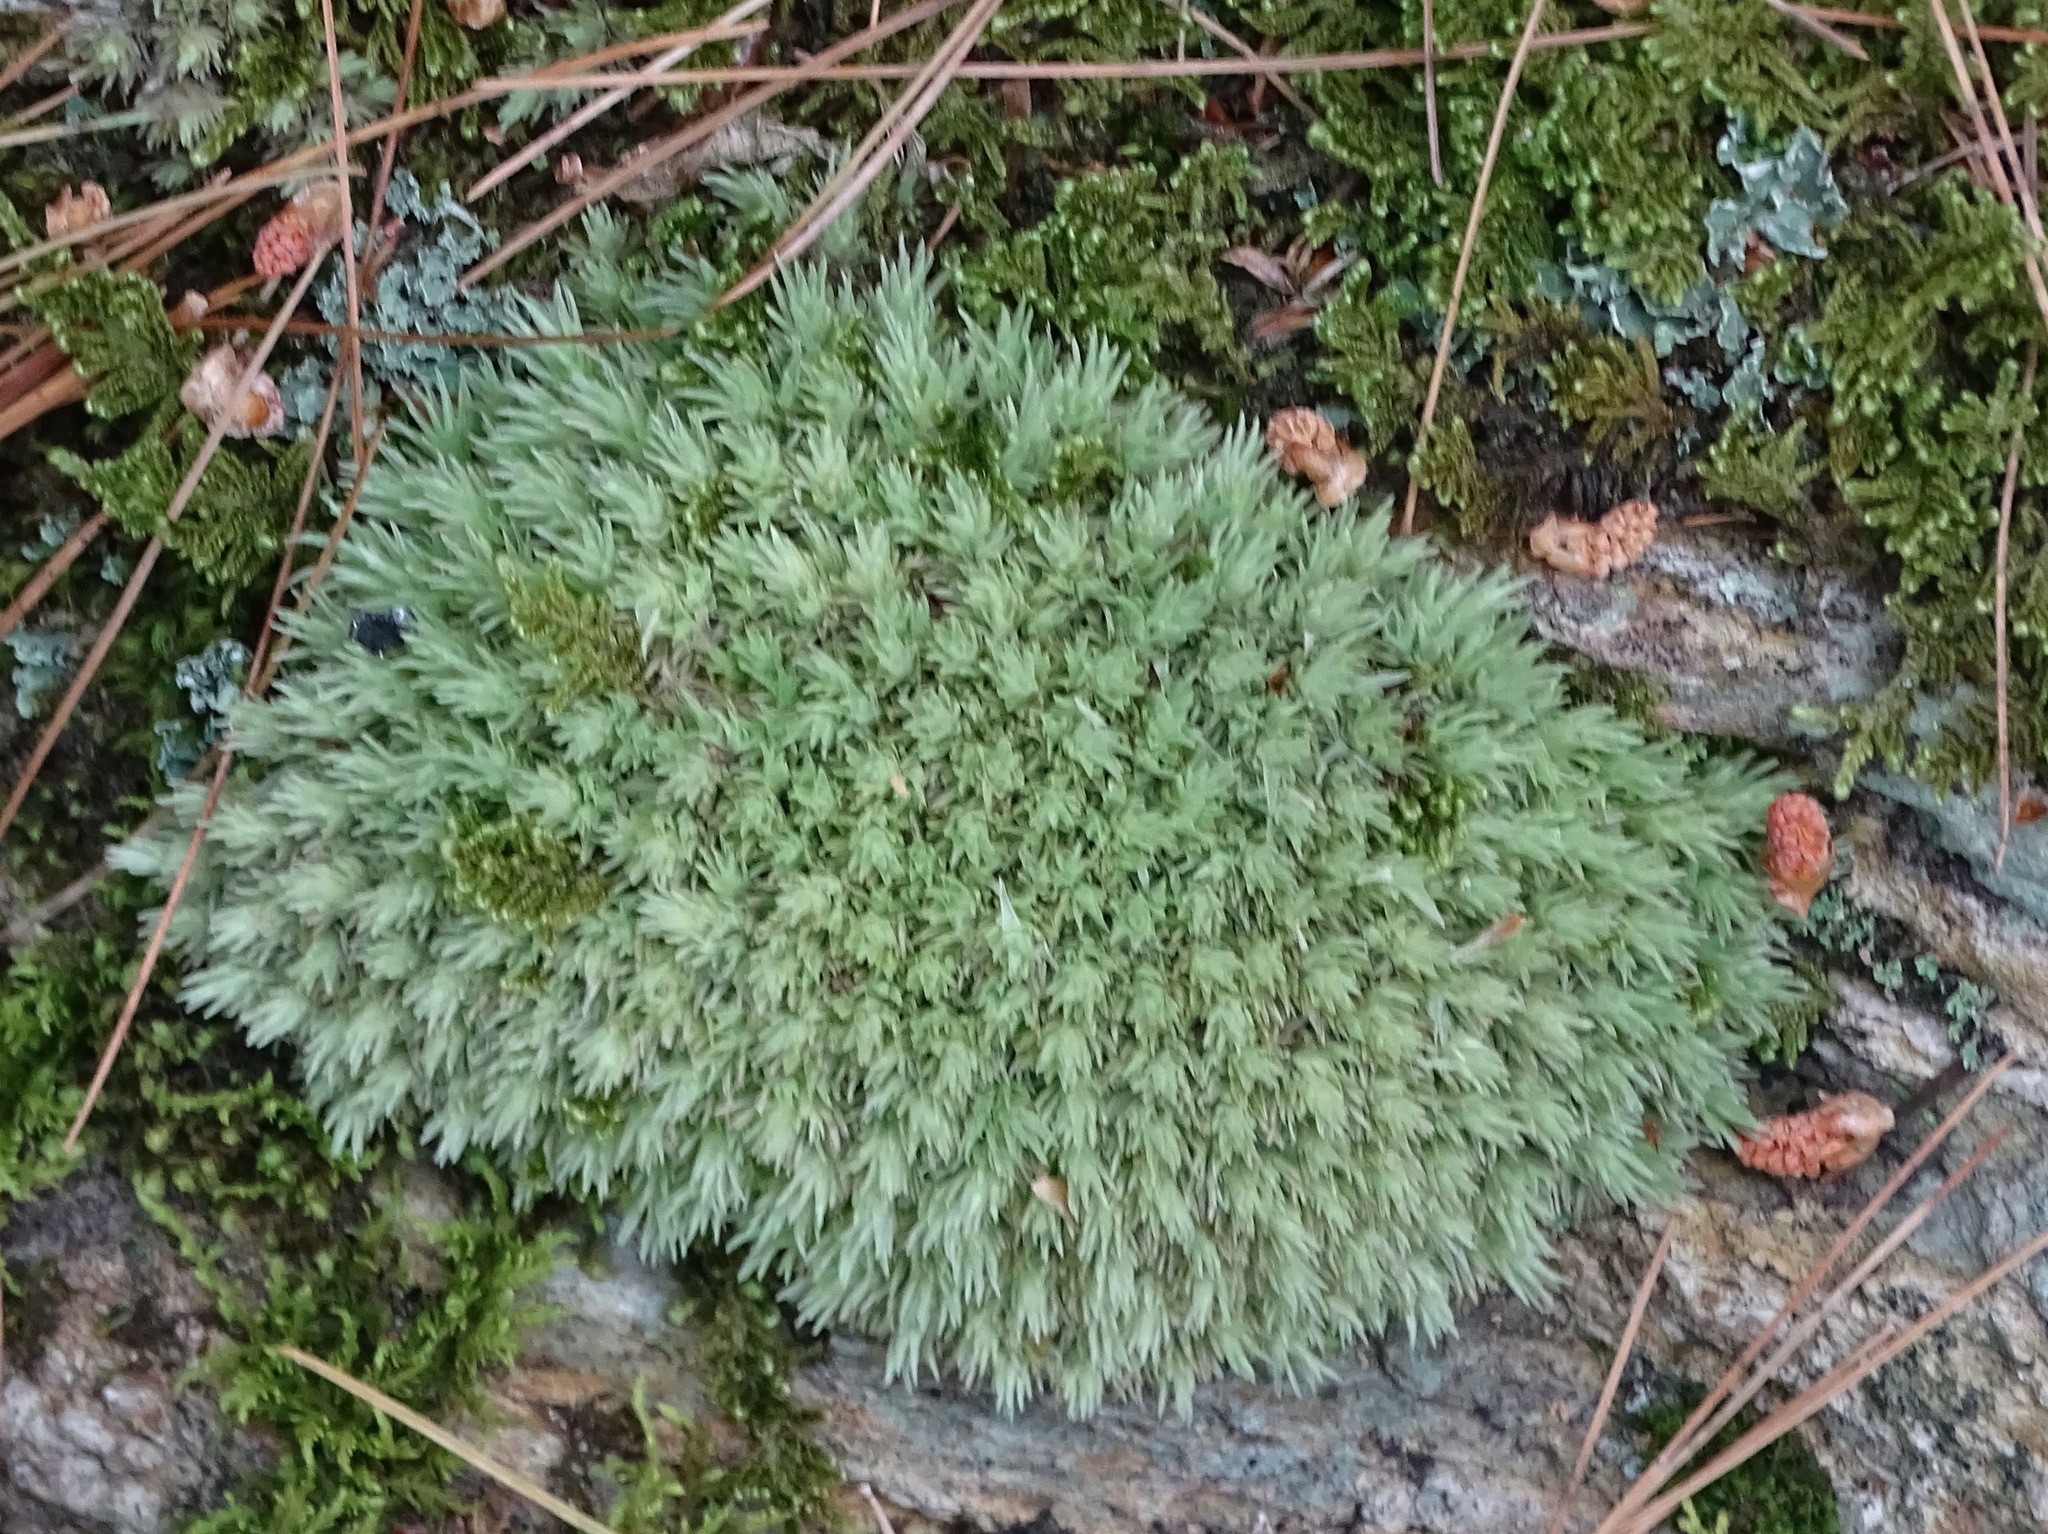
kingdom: Plantae
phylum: Bryophyta
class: Bryopsida
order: Dicranales
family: Leucobryaceae
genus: Leucobryum
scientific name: Leucobryum glaucum
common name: Large white-moss
